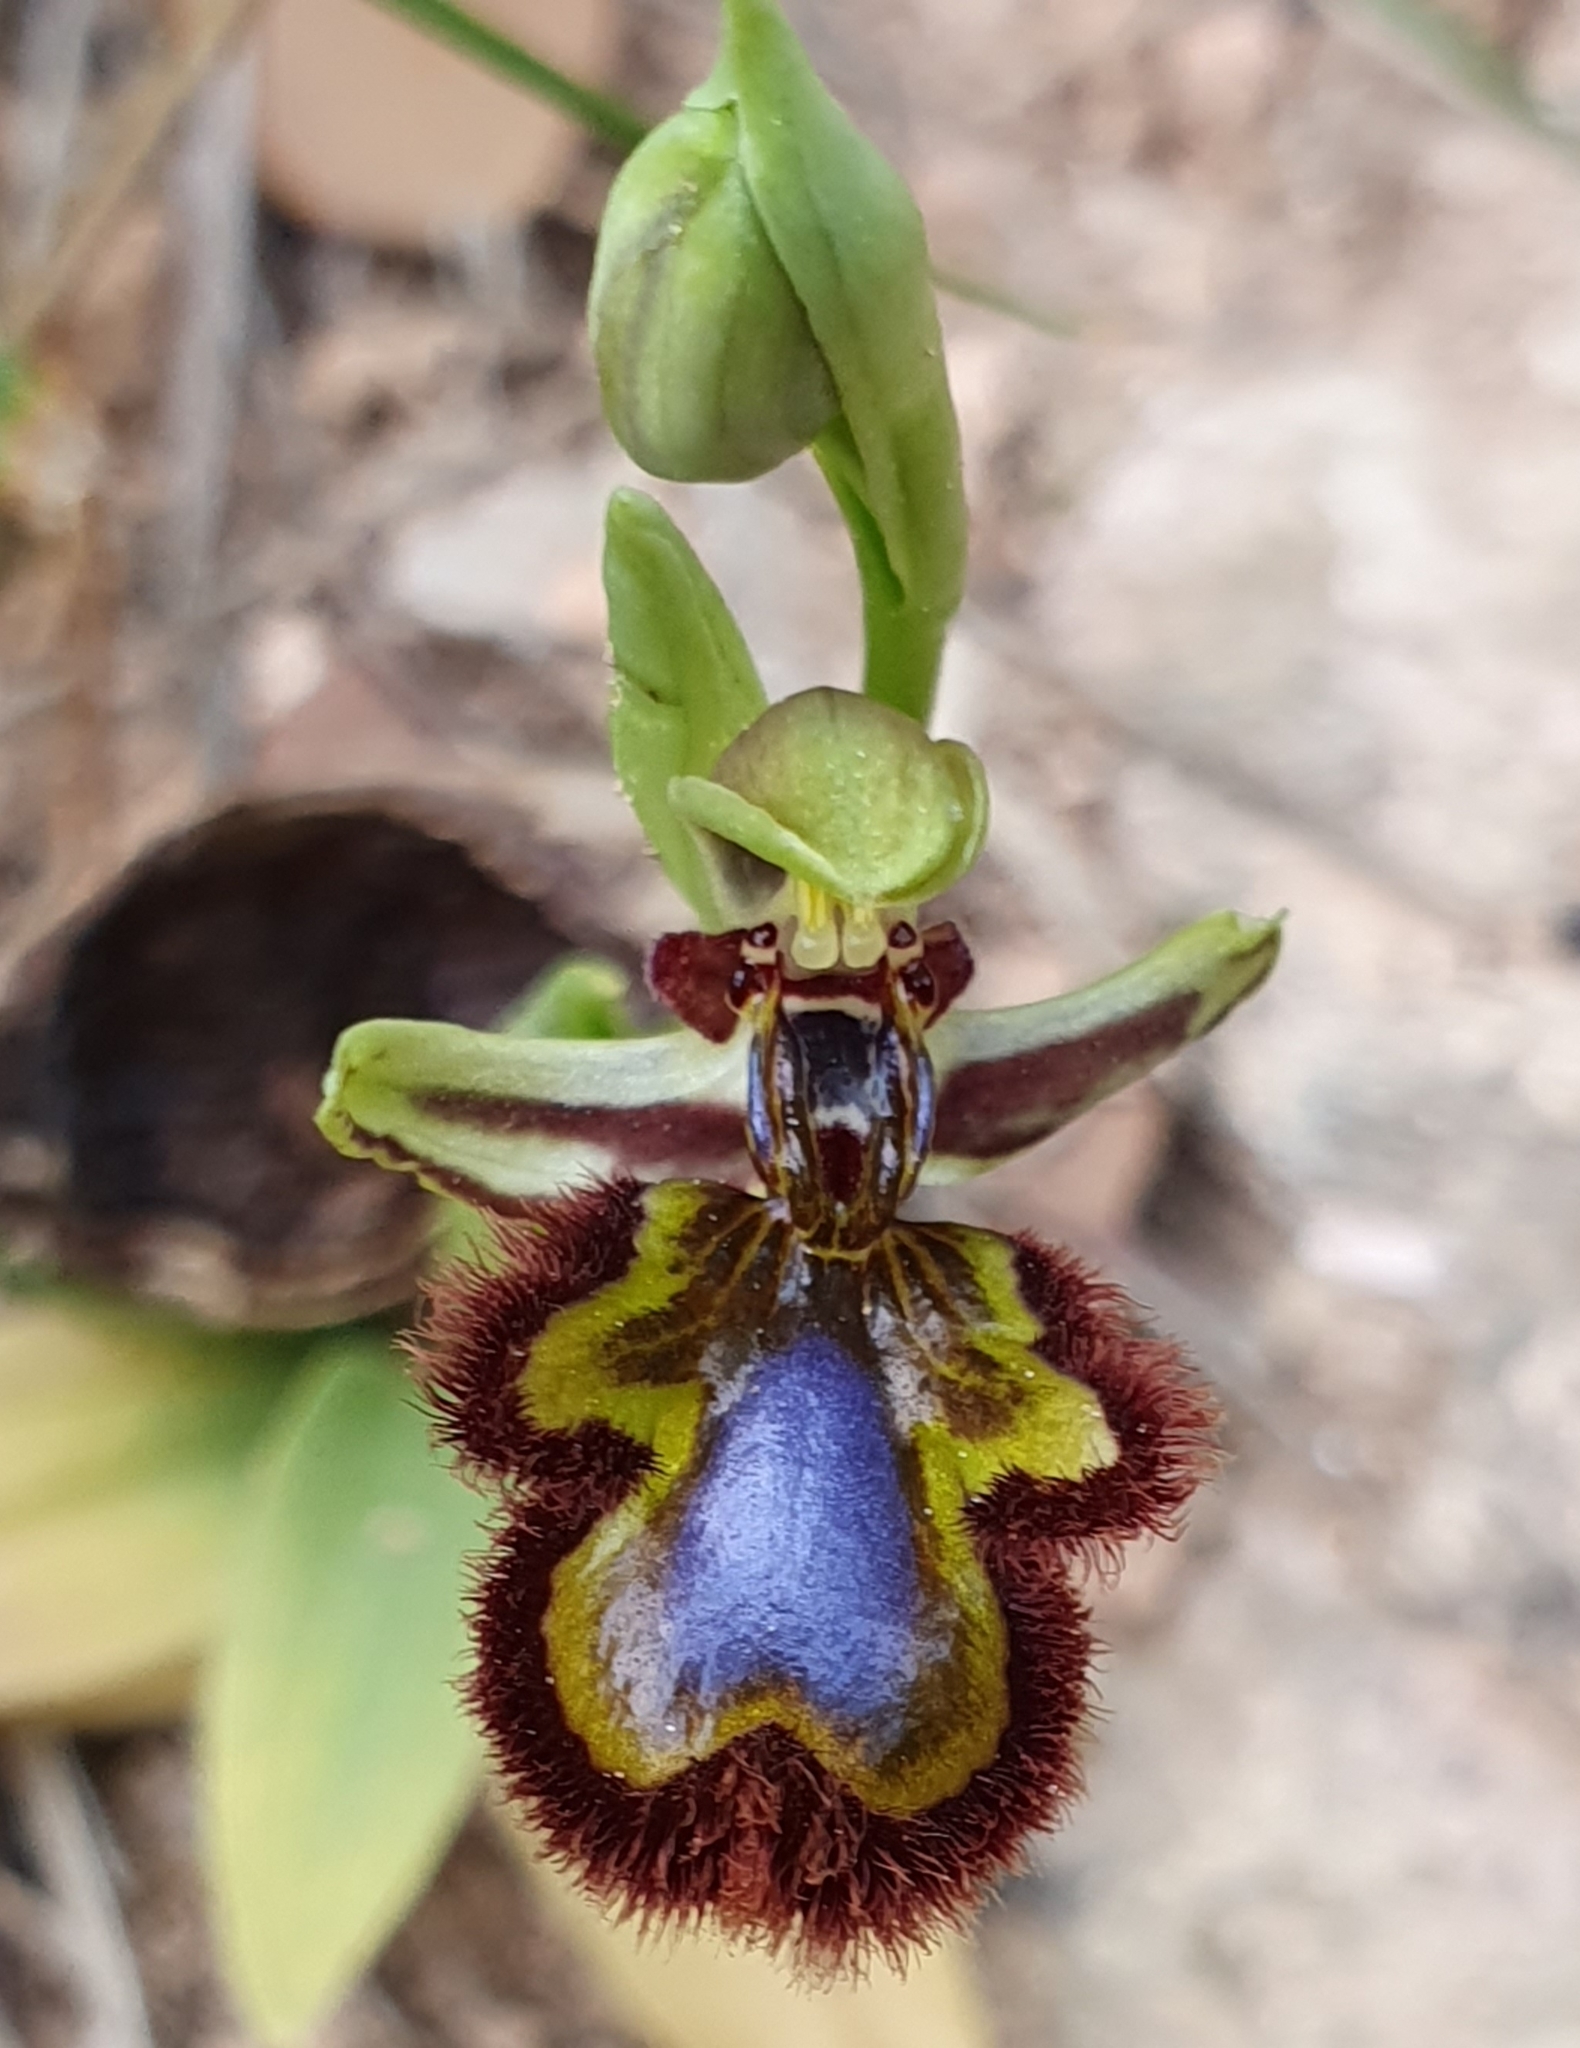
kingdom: Plantae
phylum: Tracheophyta
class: Liliopsida
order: Asparagales
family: Orchidaceae
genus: Ophrys
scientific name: Ophrys speculum
